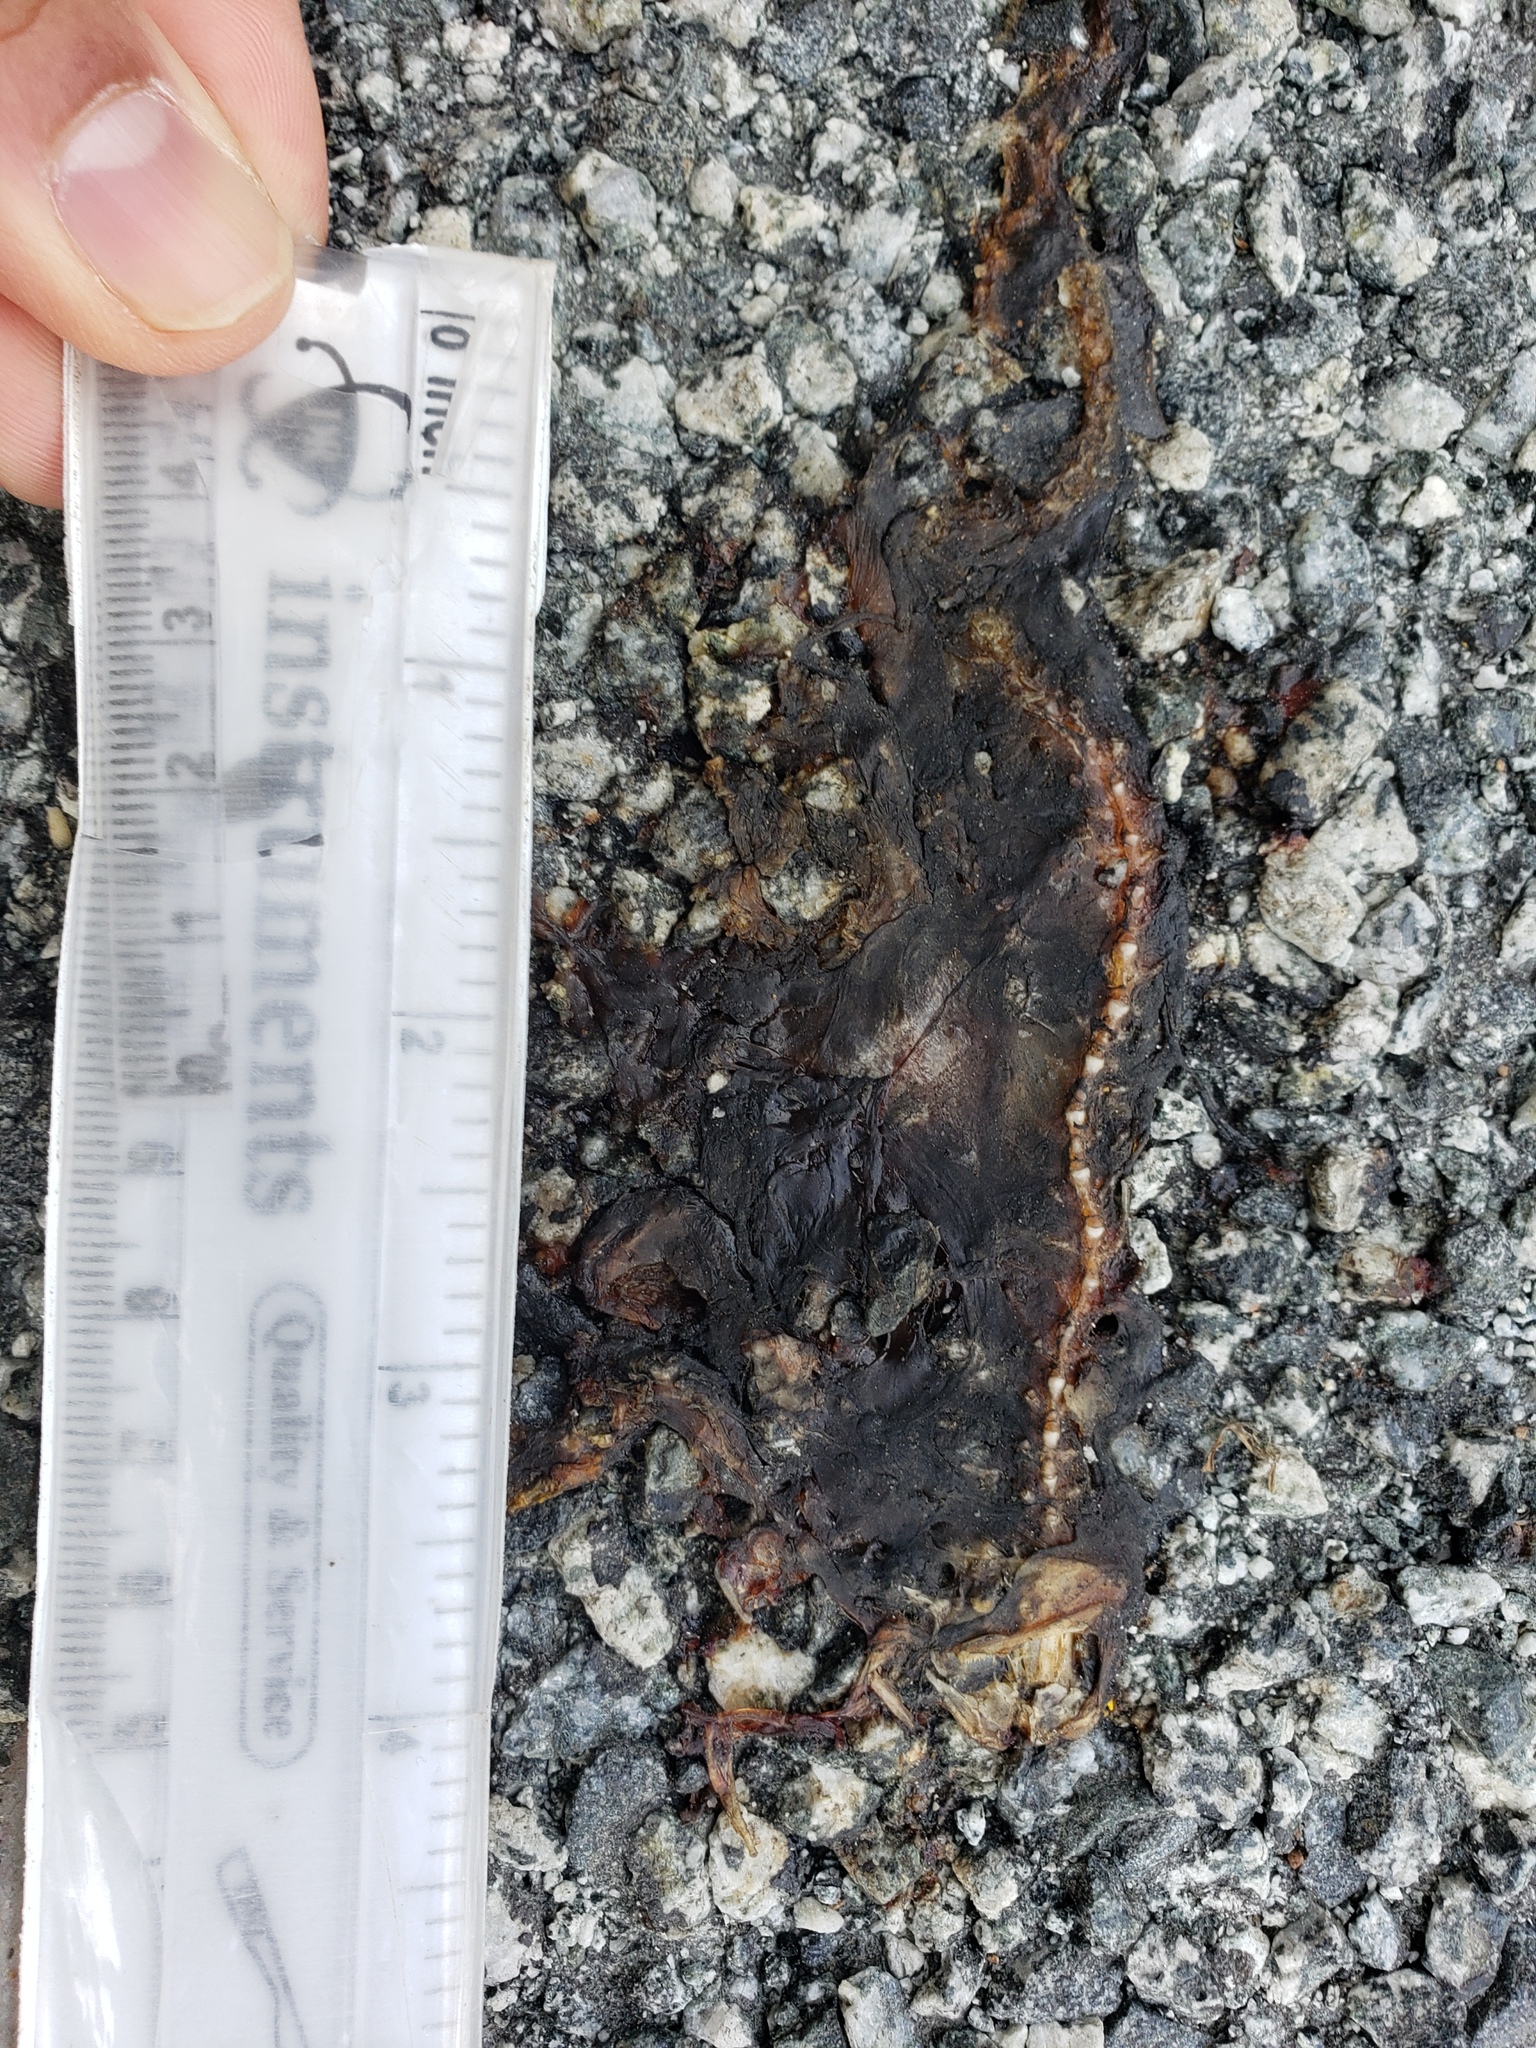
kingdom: Animalia
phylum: Chordata
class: Amphibia
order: Caudata
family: Salamandridae
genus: Taricha
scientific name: Taricha
